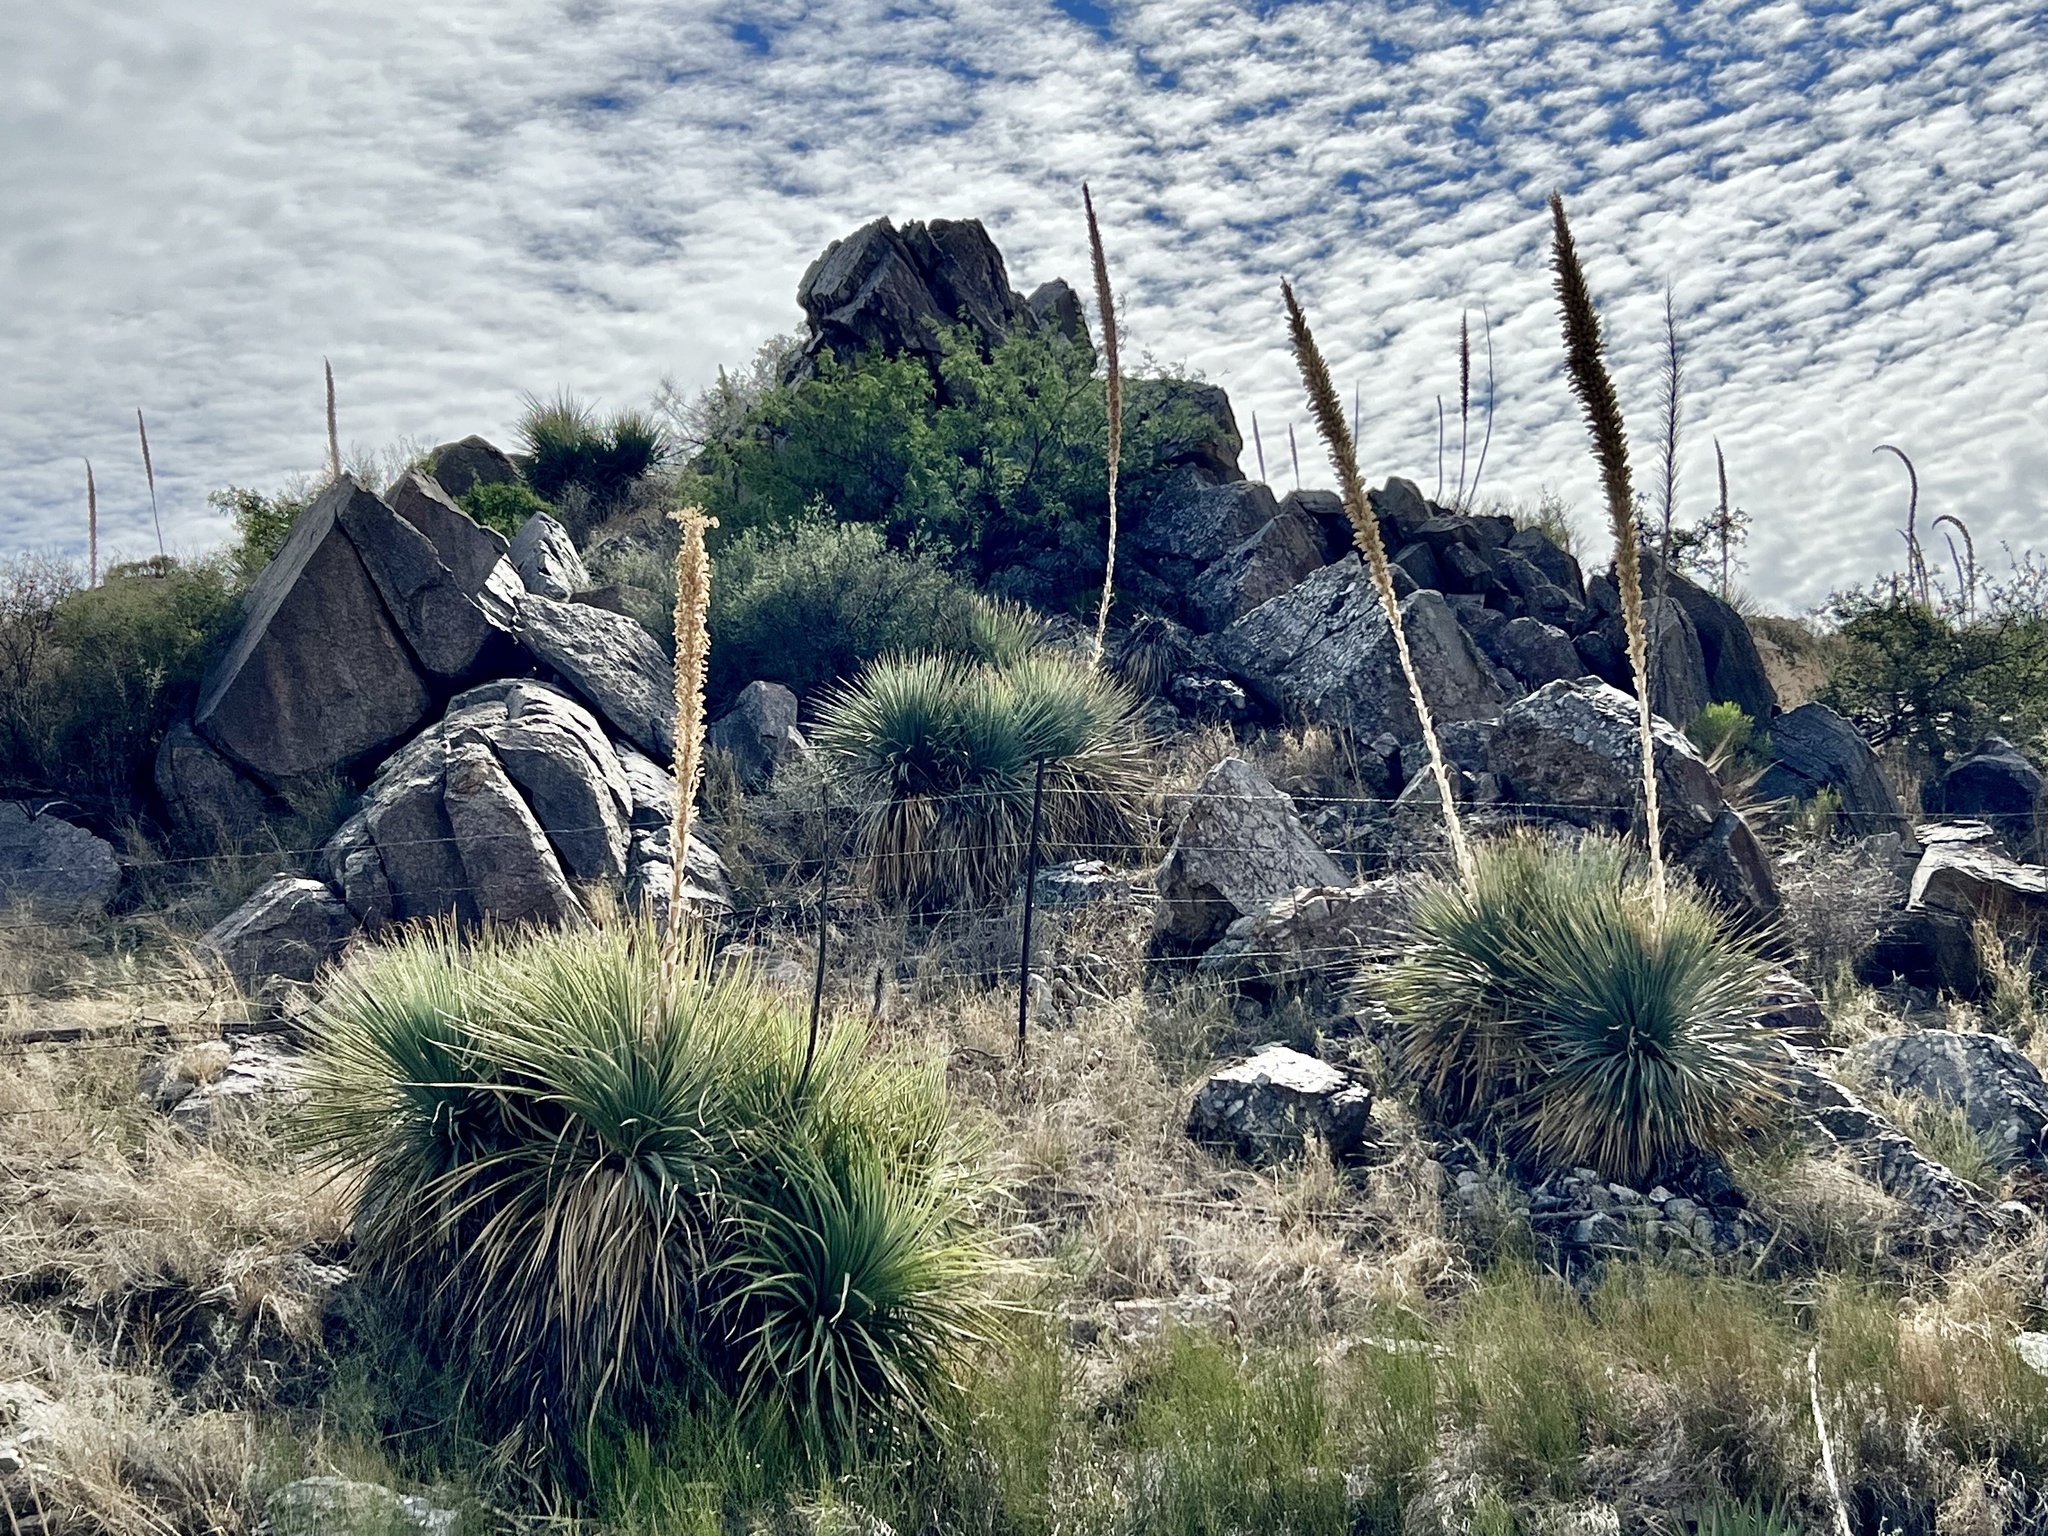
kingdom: Plantae
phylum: Tracheophyta
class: Liliopsida
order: Asparagales
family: Asparagaceae
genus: Dasylirion
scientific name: Dasylirion wheeleri
